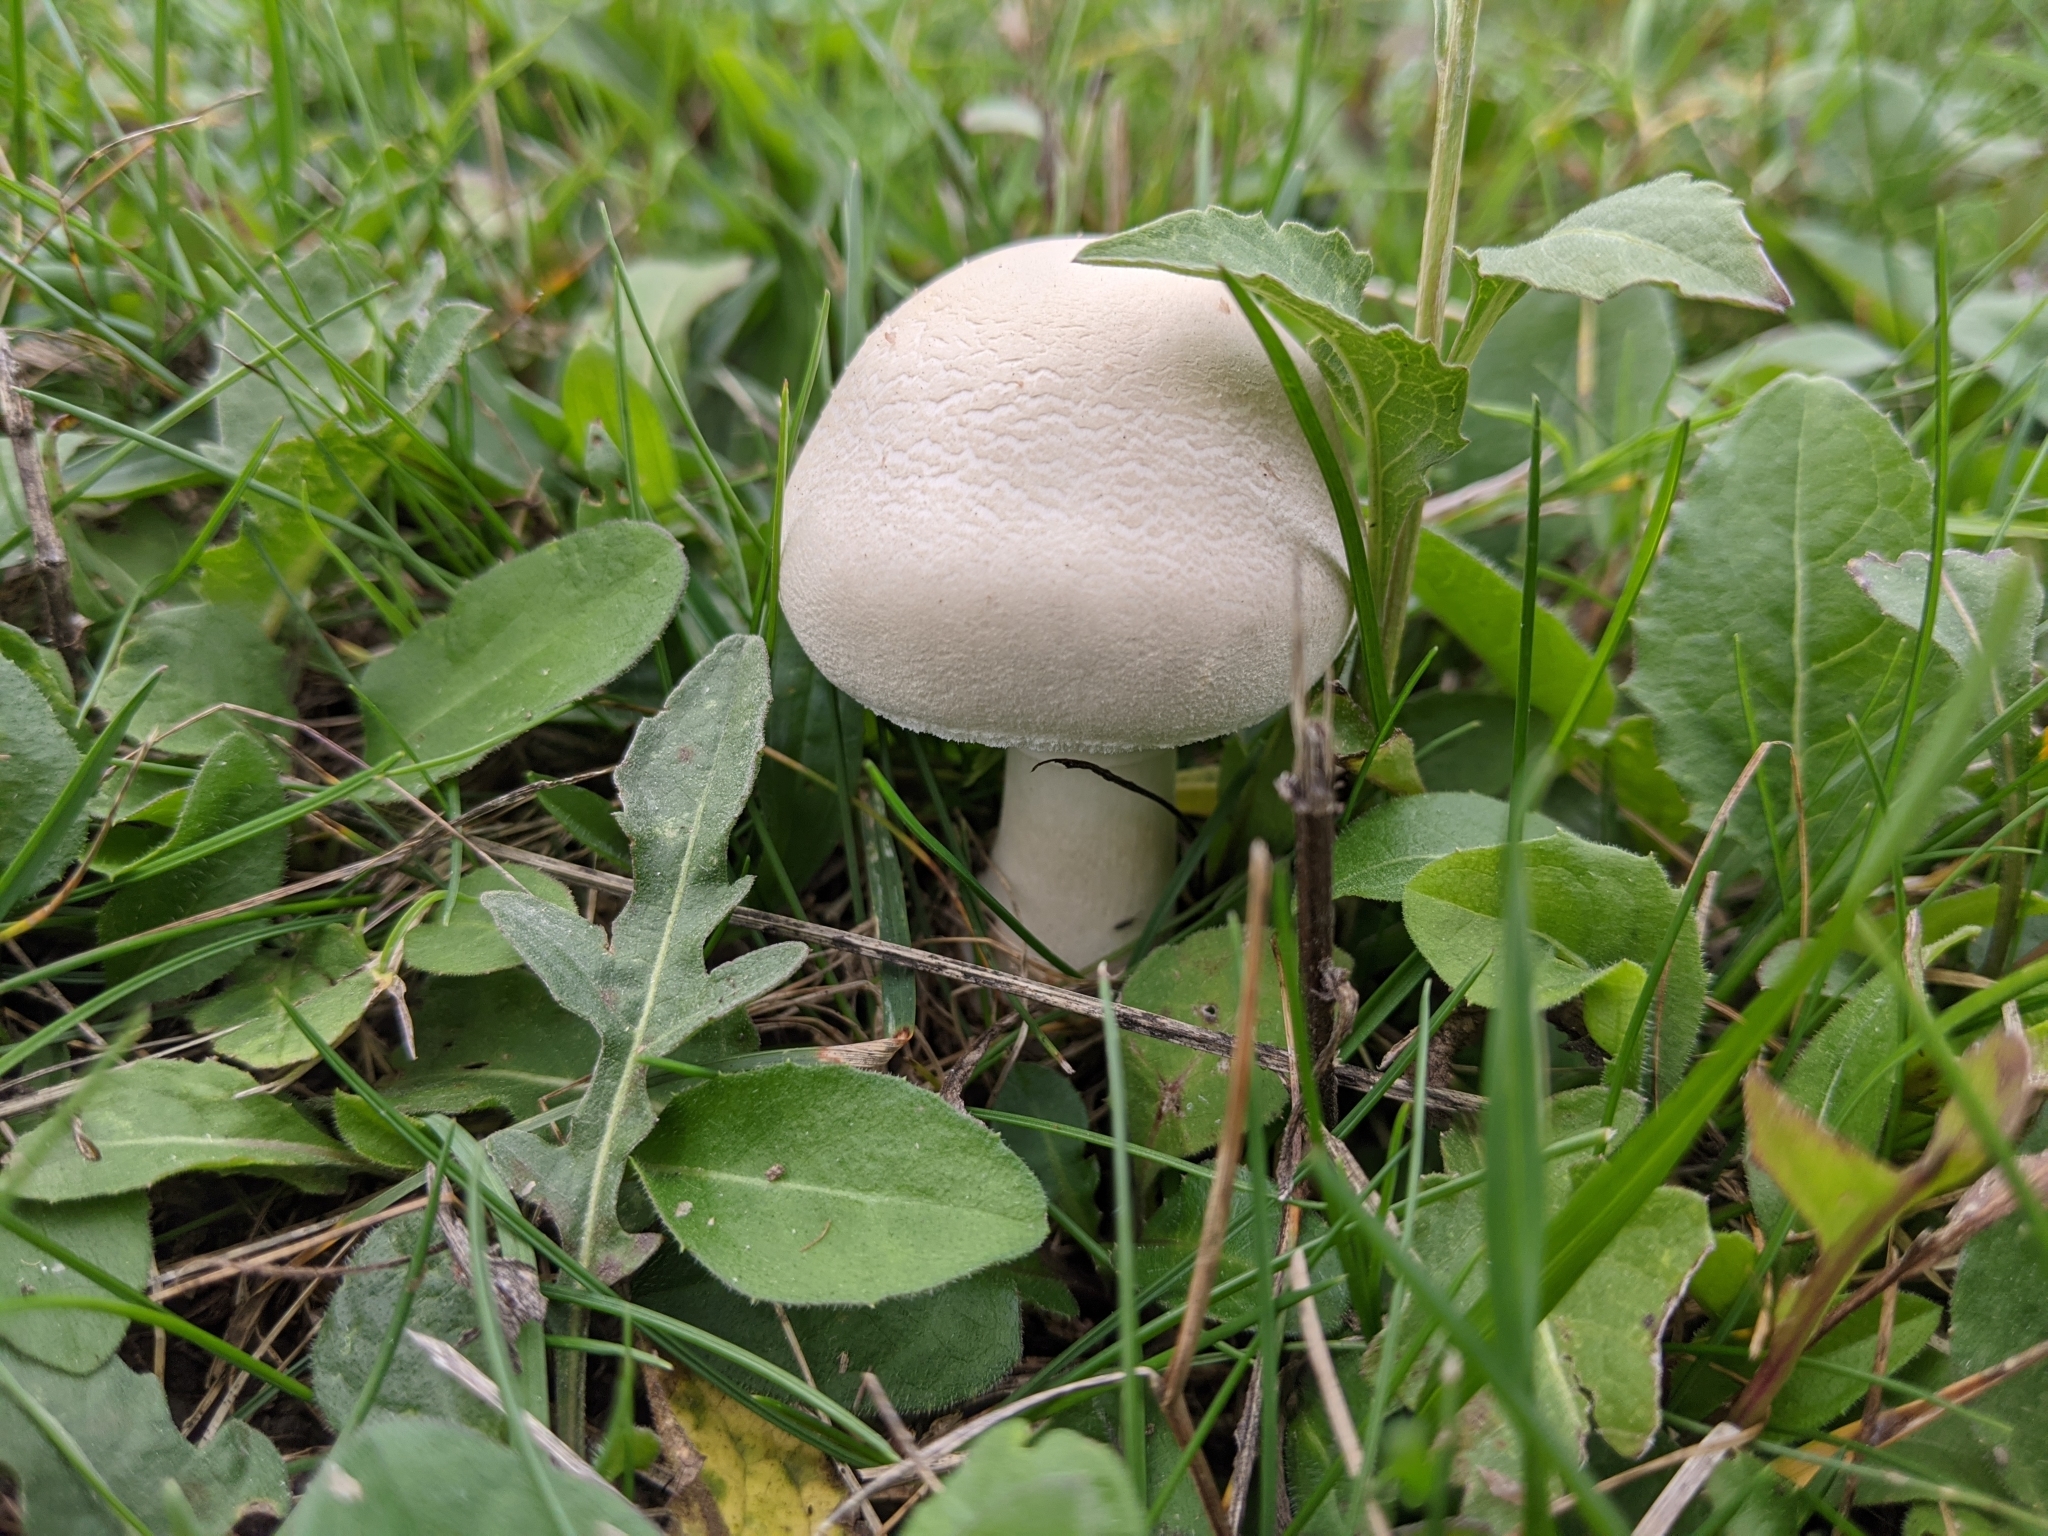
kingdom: Fungi
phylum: Basidiomycota
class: Agaricomycetes
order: Agaricales
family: Agaricaceae
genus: Leucoagaricus
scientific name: Leucoagaricus leucothites
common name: White dapperling
